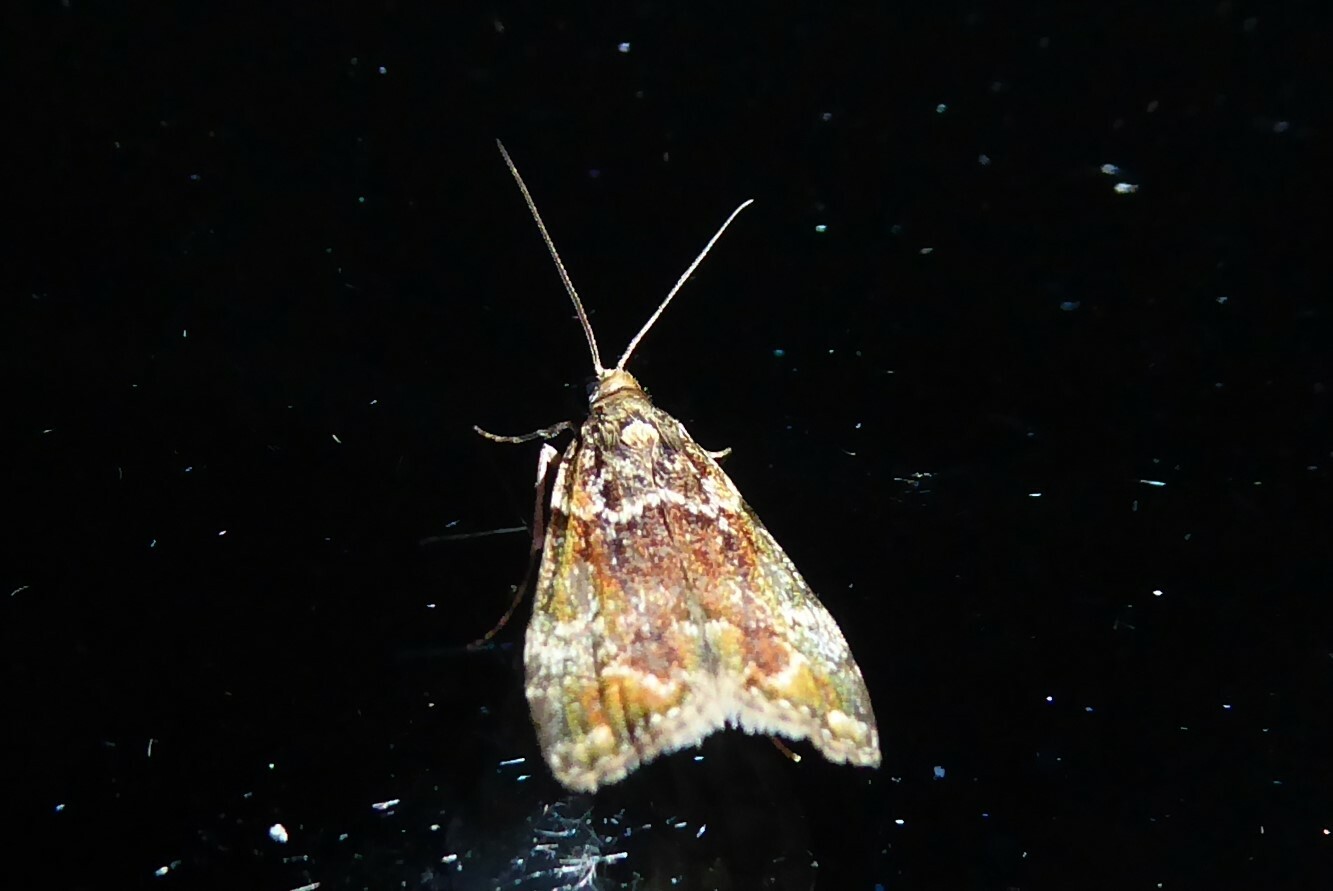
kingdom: Animalia
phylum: Arthropoda
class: Insecta
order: Lepidoptera
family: Crambidae
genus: Eudonia
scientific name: Eudonia minualis
